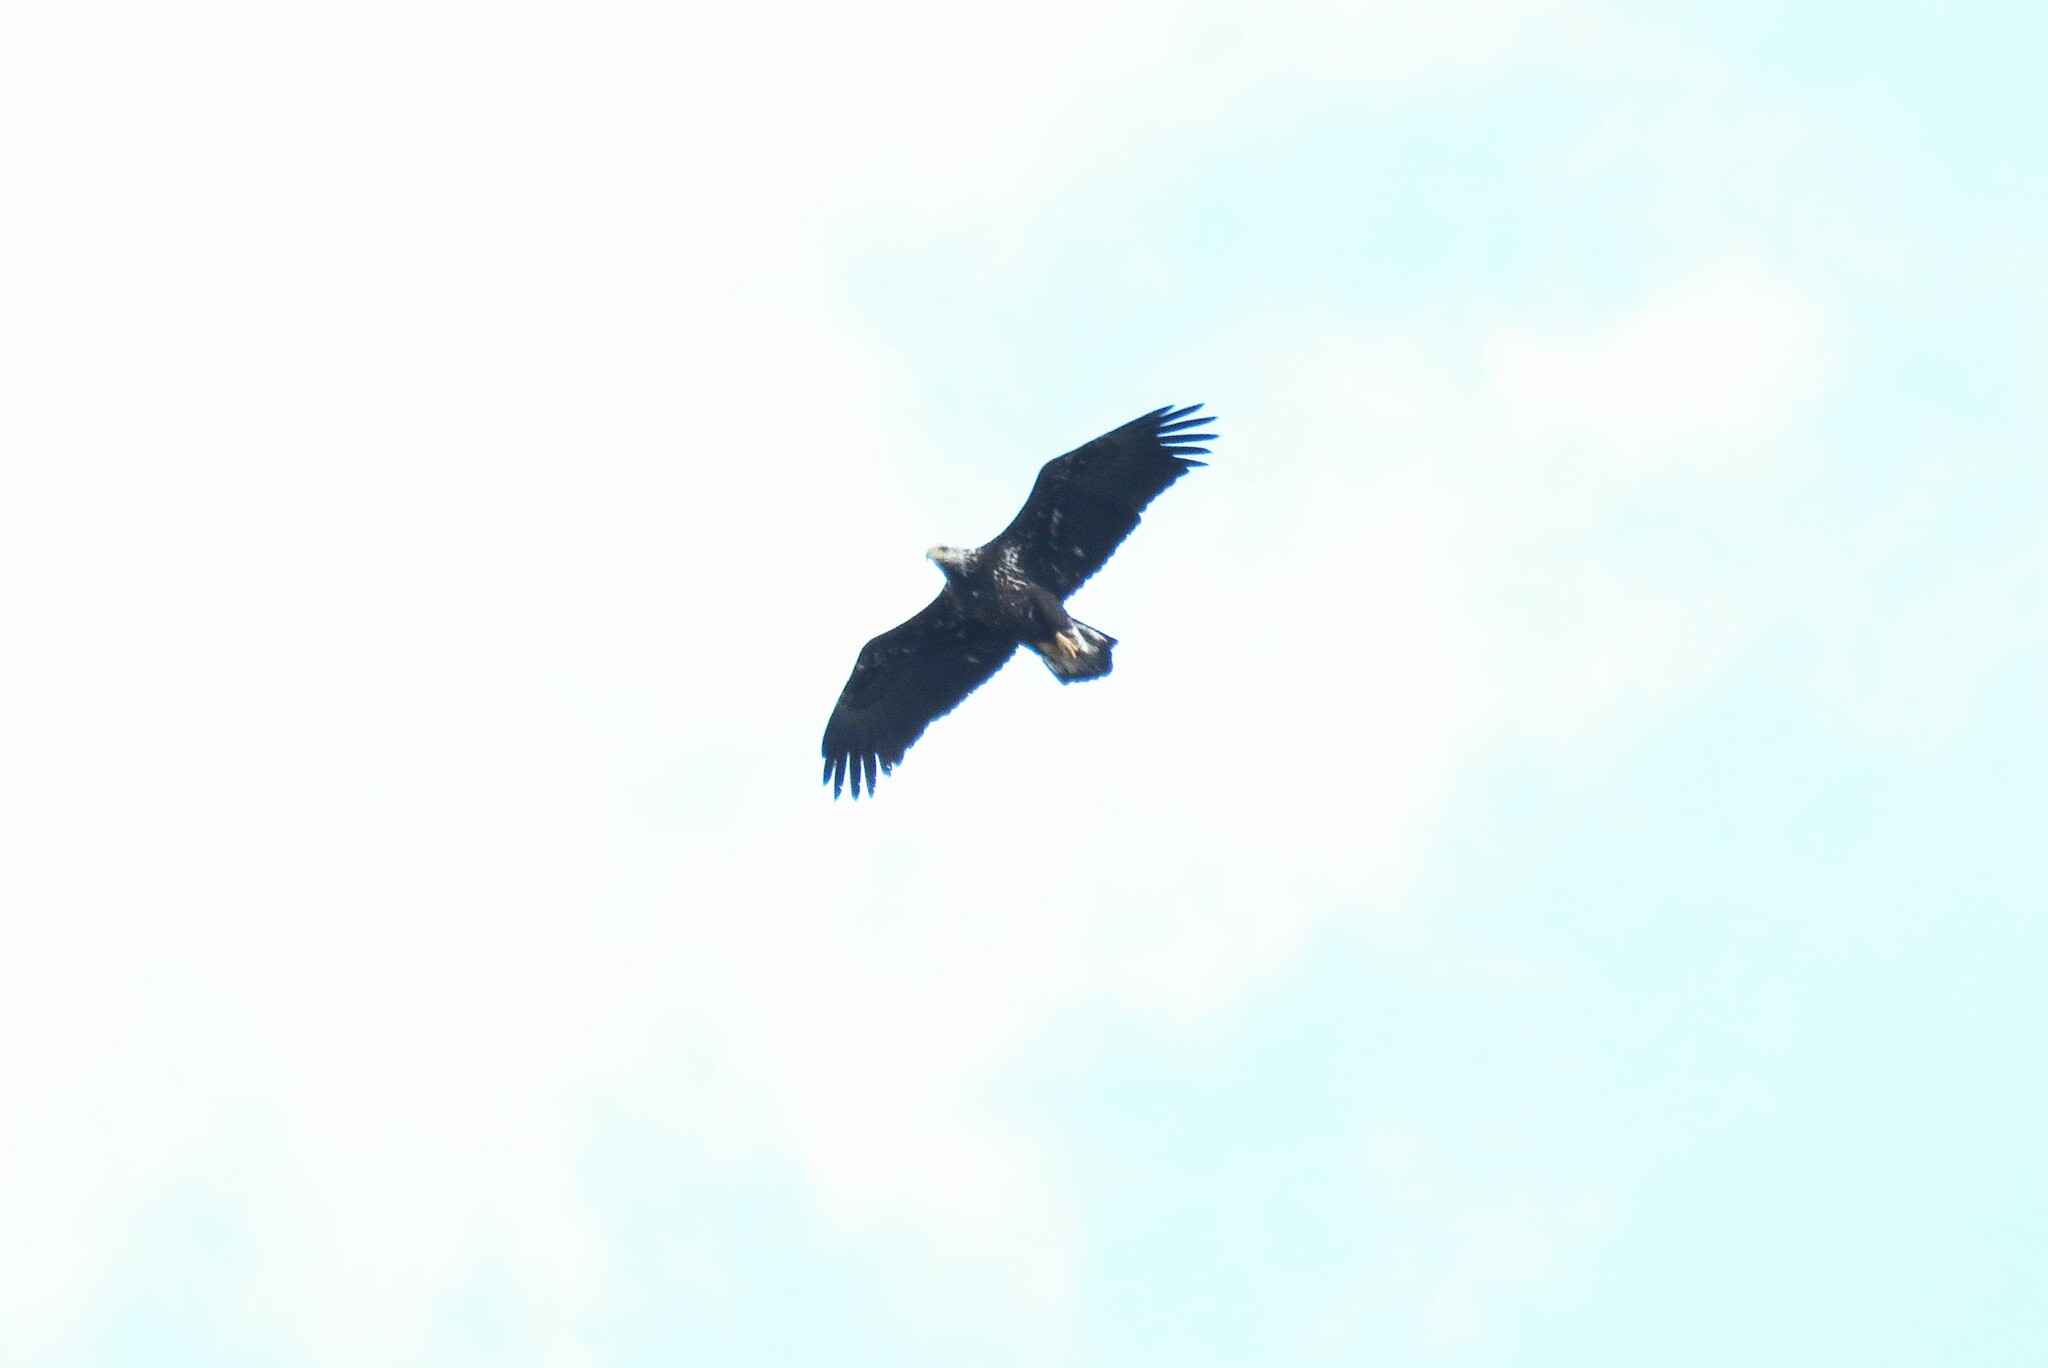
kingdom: Animalia
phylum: Chordata
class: Aves
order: Accipitriformes
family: Accipitridae
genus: Haliaeetus
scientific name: Haliaeetus leucocephalus
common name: Bald eagle
